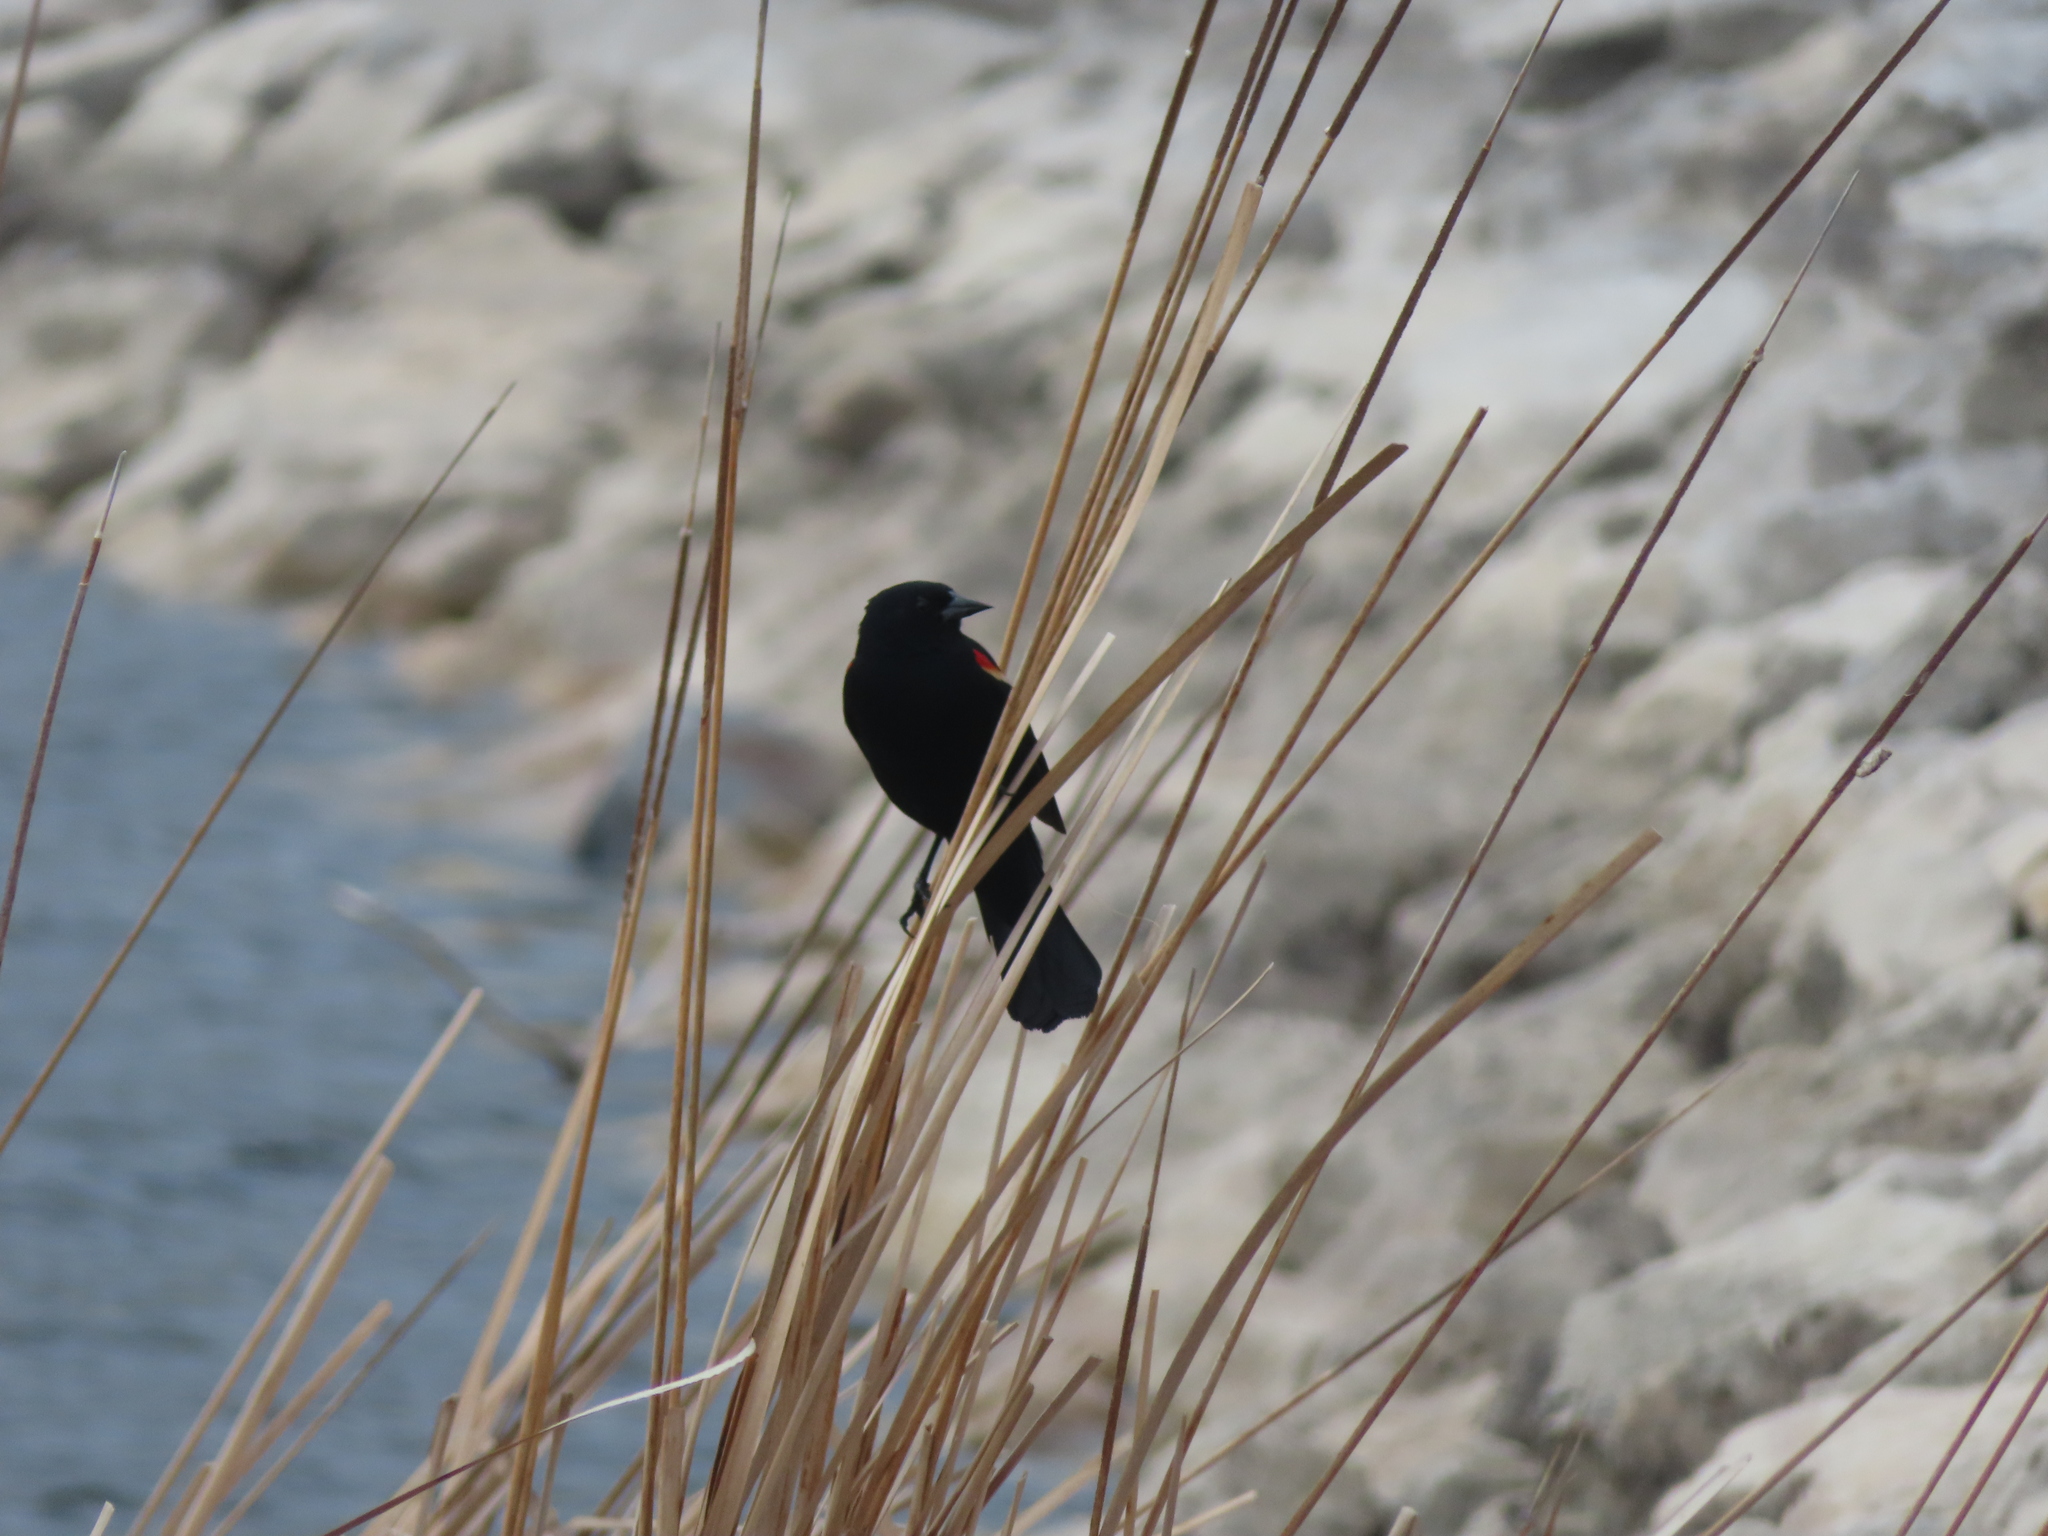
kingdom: Animalia
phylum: Chordata
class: Aves
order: Passeriformes
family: Icteridae
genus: Agelaius
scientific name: Agelaius phoeniceus
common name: Red-winged blackbird
